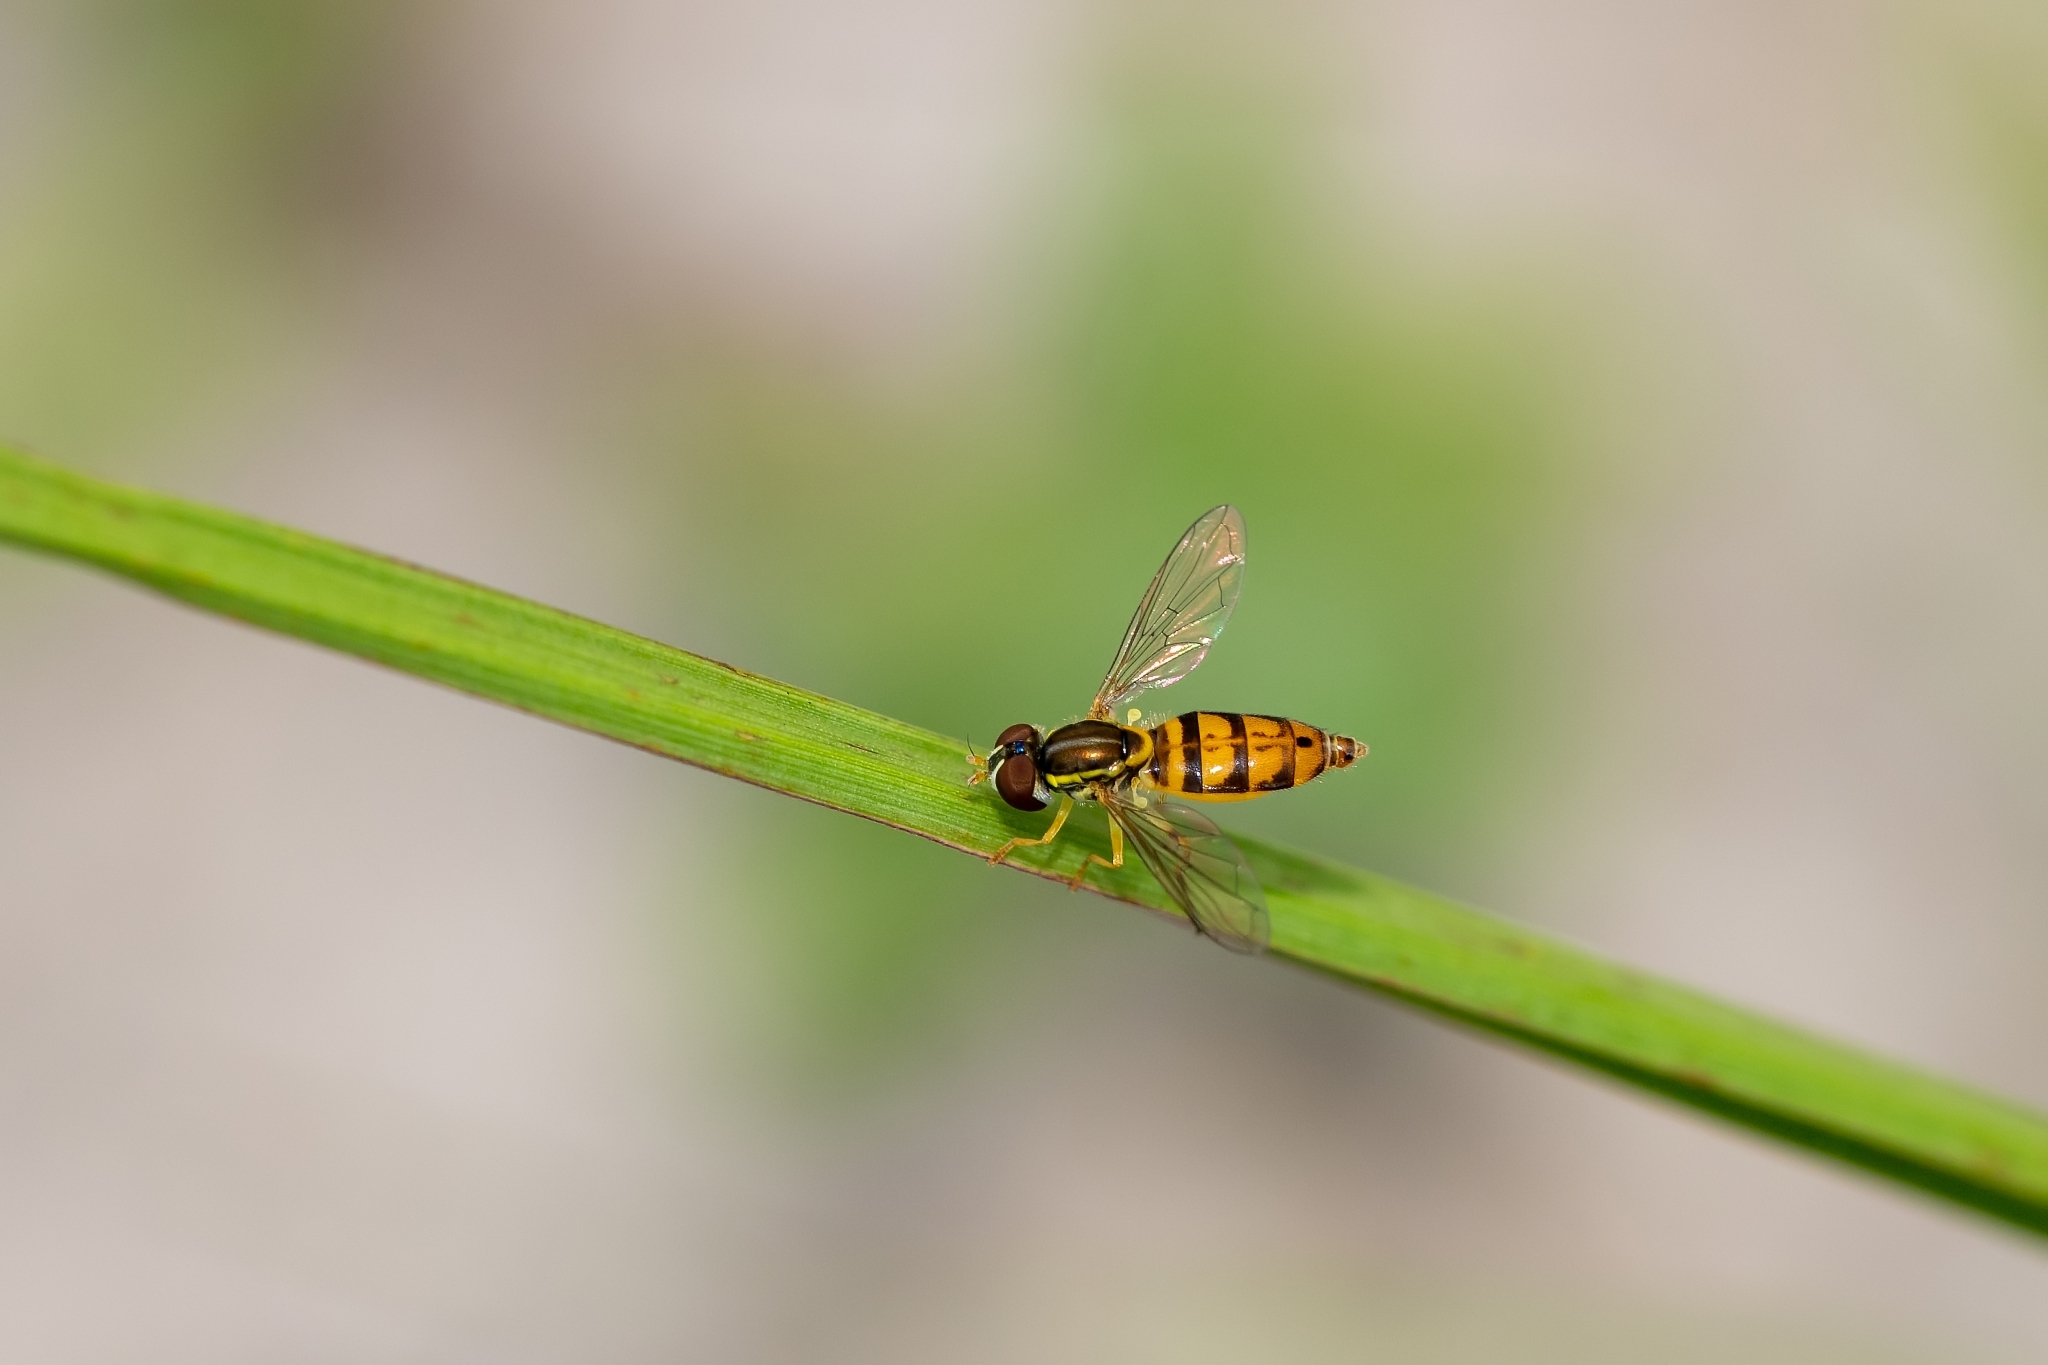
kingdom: Animalia
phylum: Arthropoda
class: Insecta
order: Diptera
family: Syrphidae
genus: Toxomerus
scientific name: Toxomerus floralis
